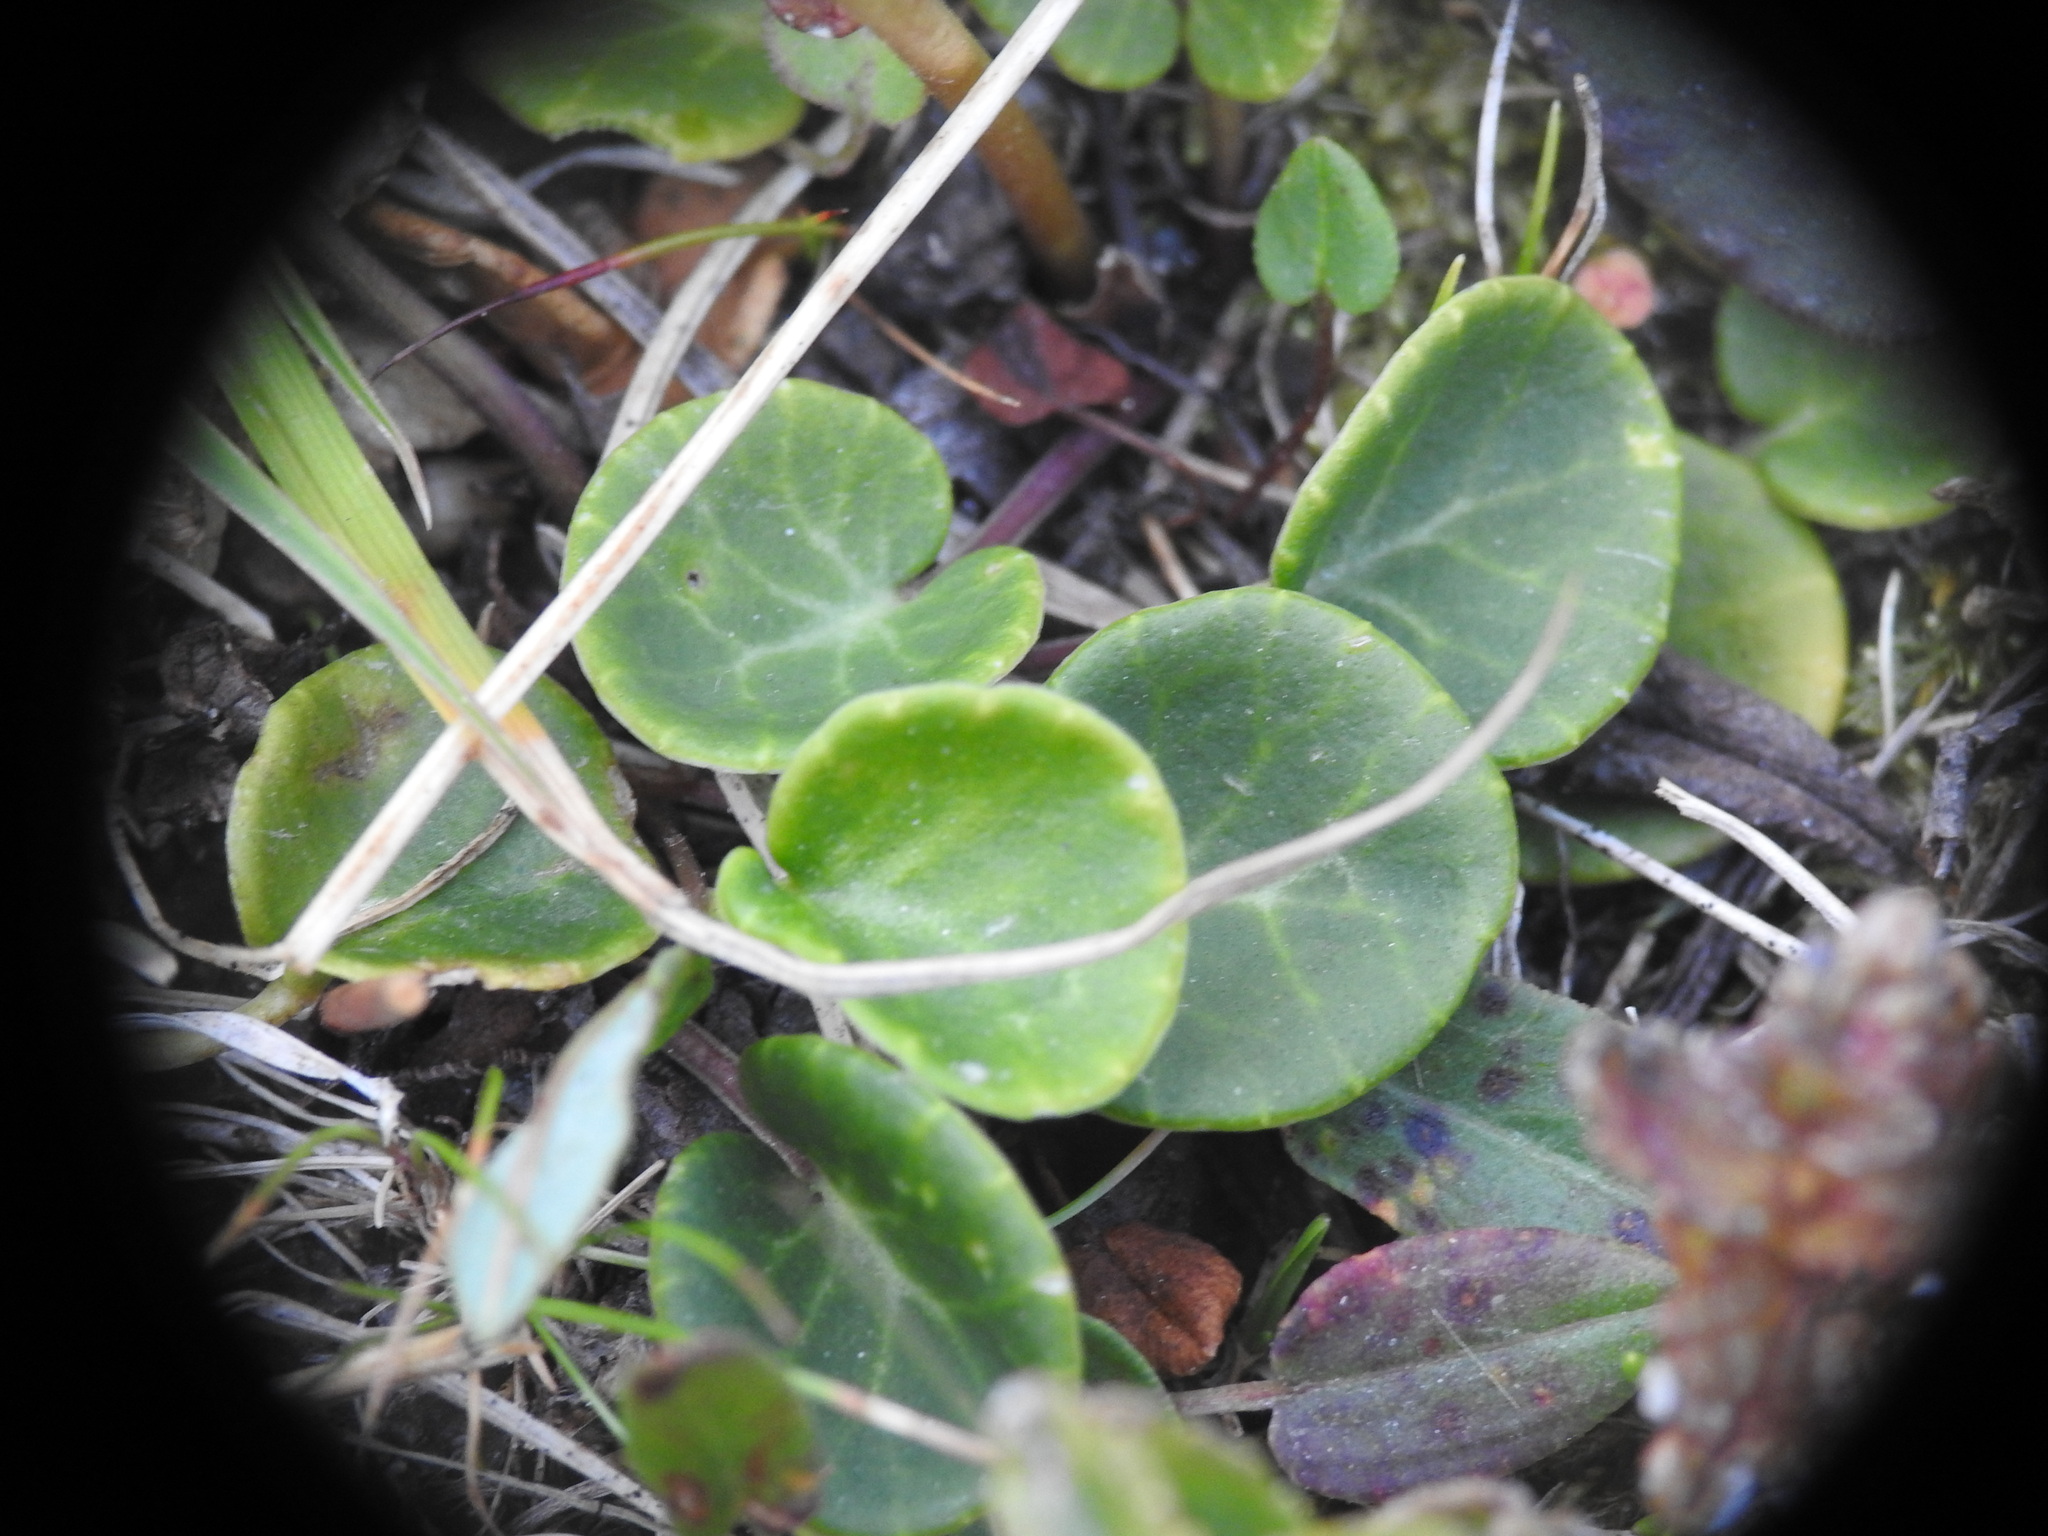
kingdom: Plantae
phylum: Tracheophyta
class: Magnoliopsida
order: Ericales
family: Primulaceae
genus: Soldanella
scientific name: Soldanella alpina
